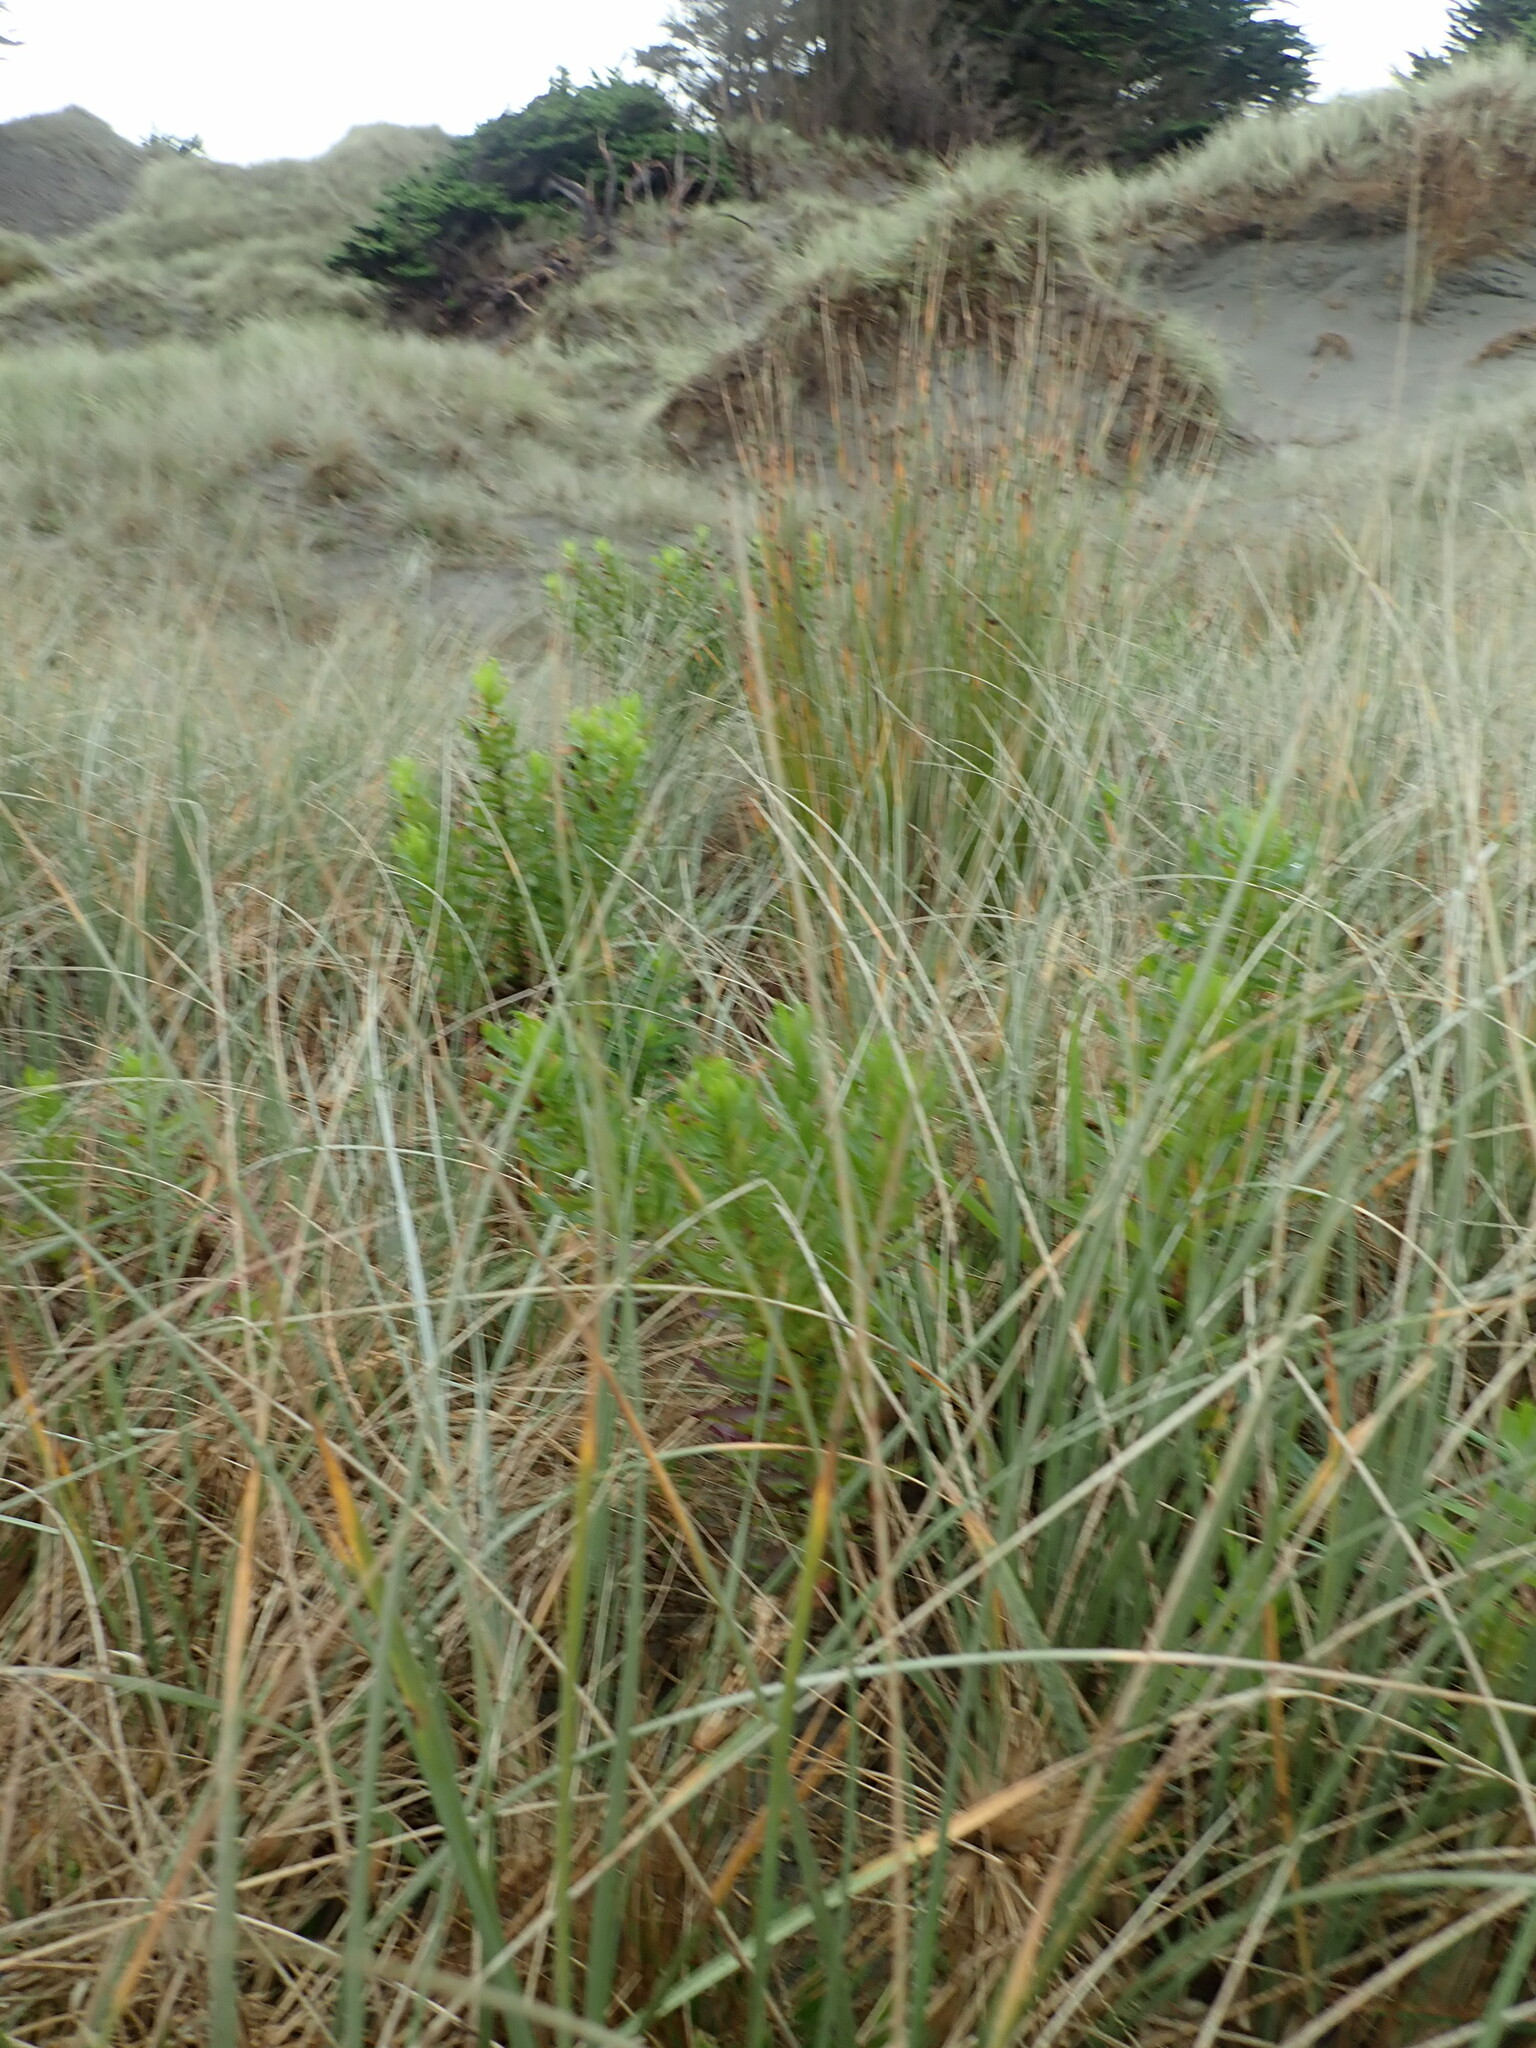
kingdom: Plantae
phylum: Tracheophyta
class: Magnoliopsida
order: Asterales
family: Asteraceae
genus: Senecio
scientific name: Senecio glastifolius
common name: Woad-leaved ragwort
